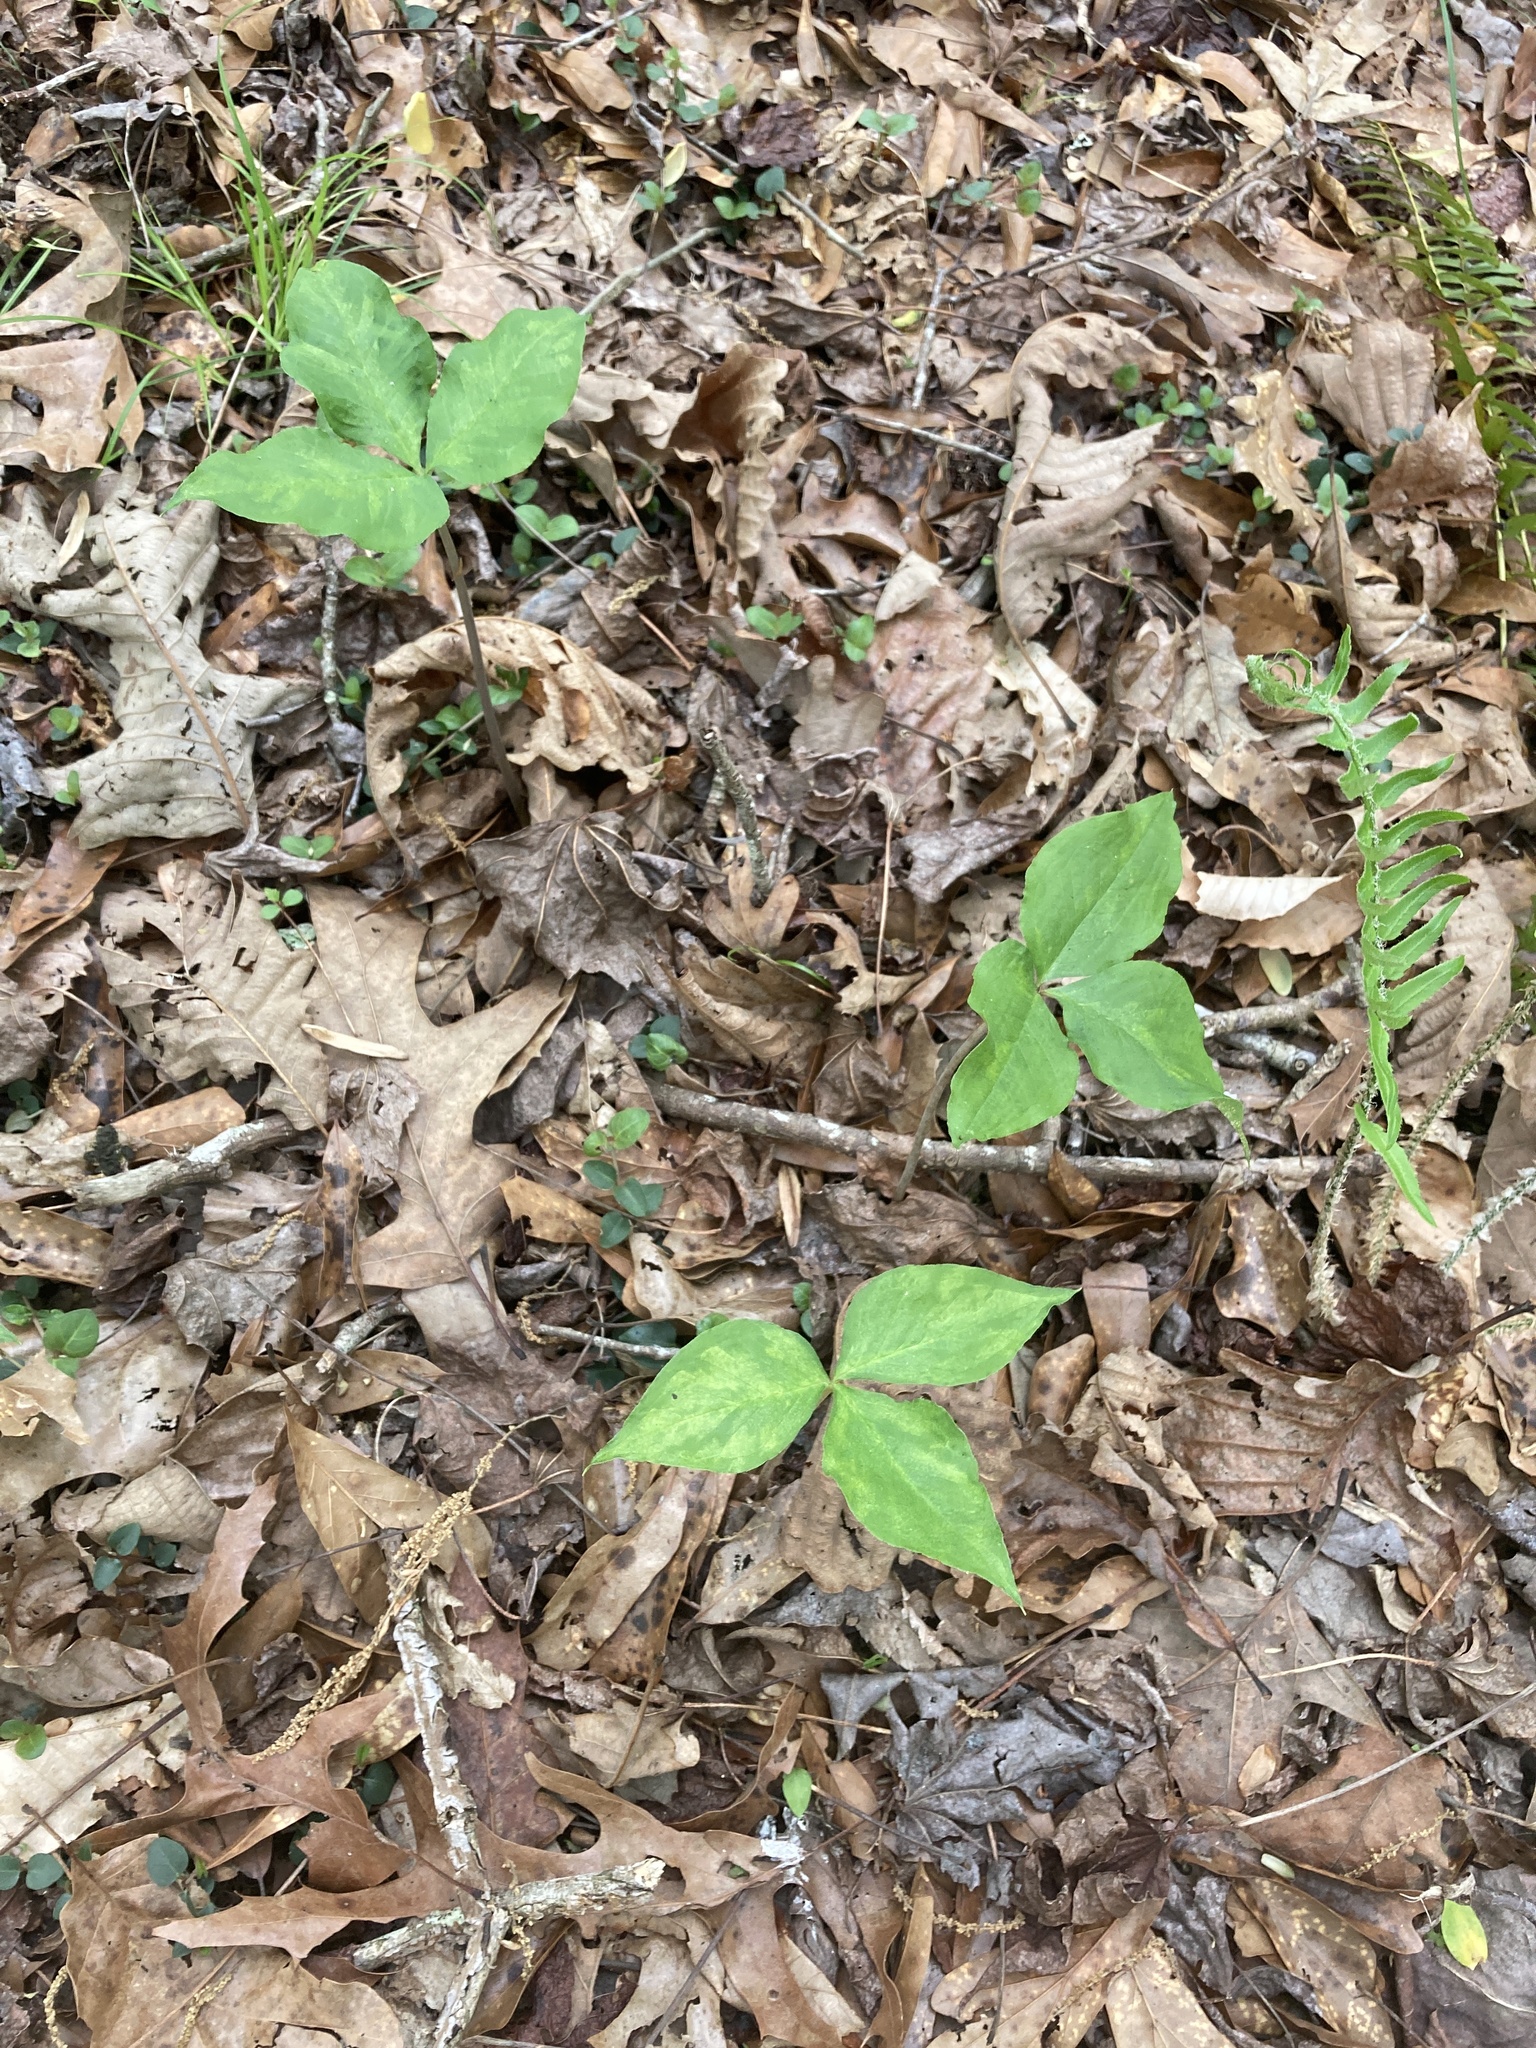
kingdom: Plantae
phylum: Tracheophyta
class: Liliopsida
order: Alismatales
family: Araceae
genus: Arisaema
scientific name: Arisaema triphyllum
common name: Jack-in-the-pulpit
